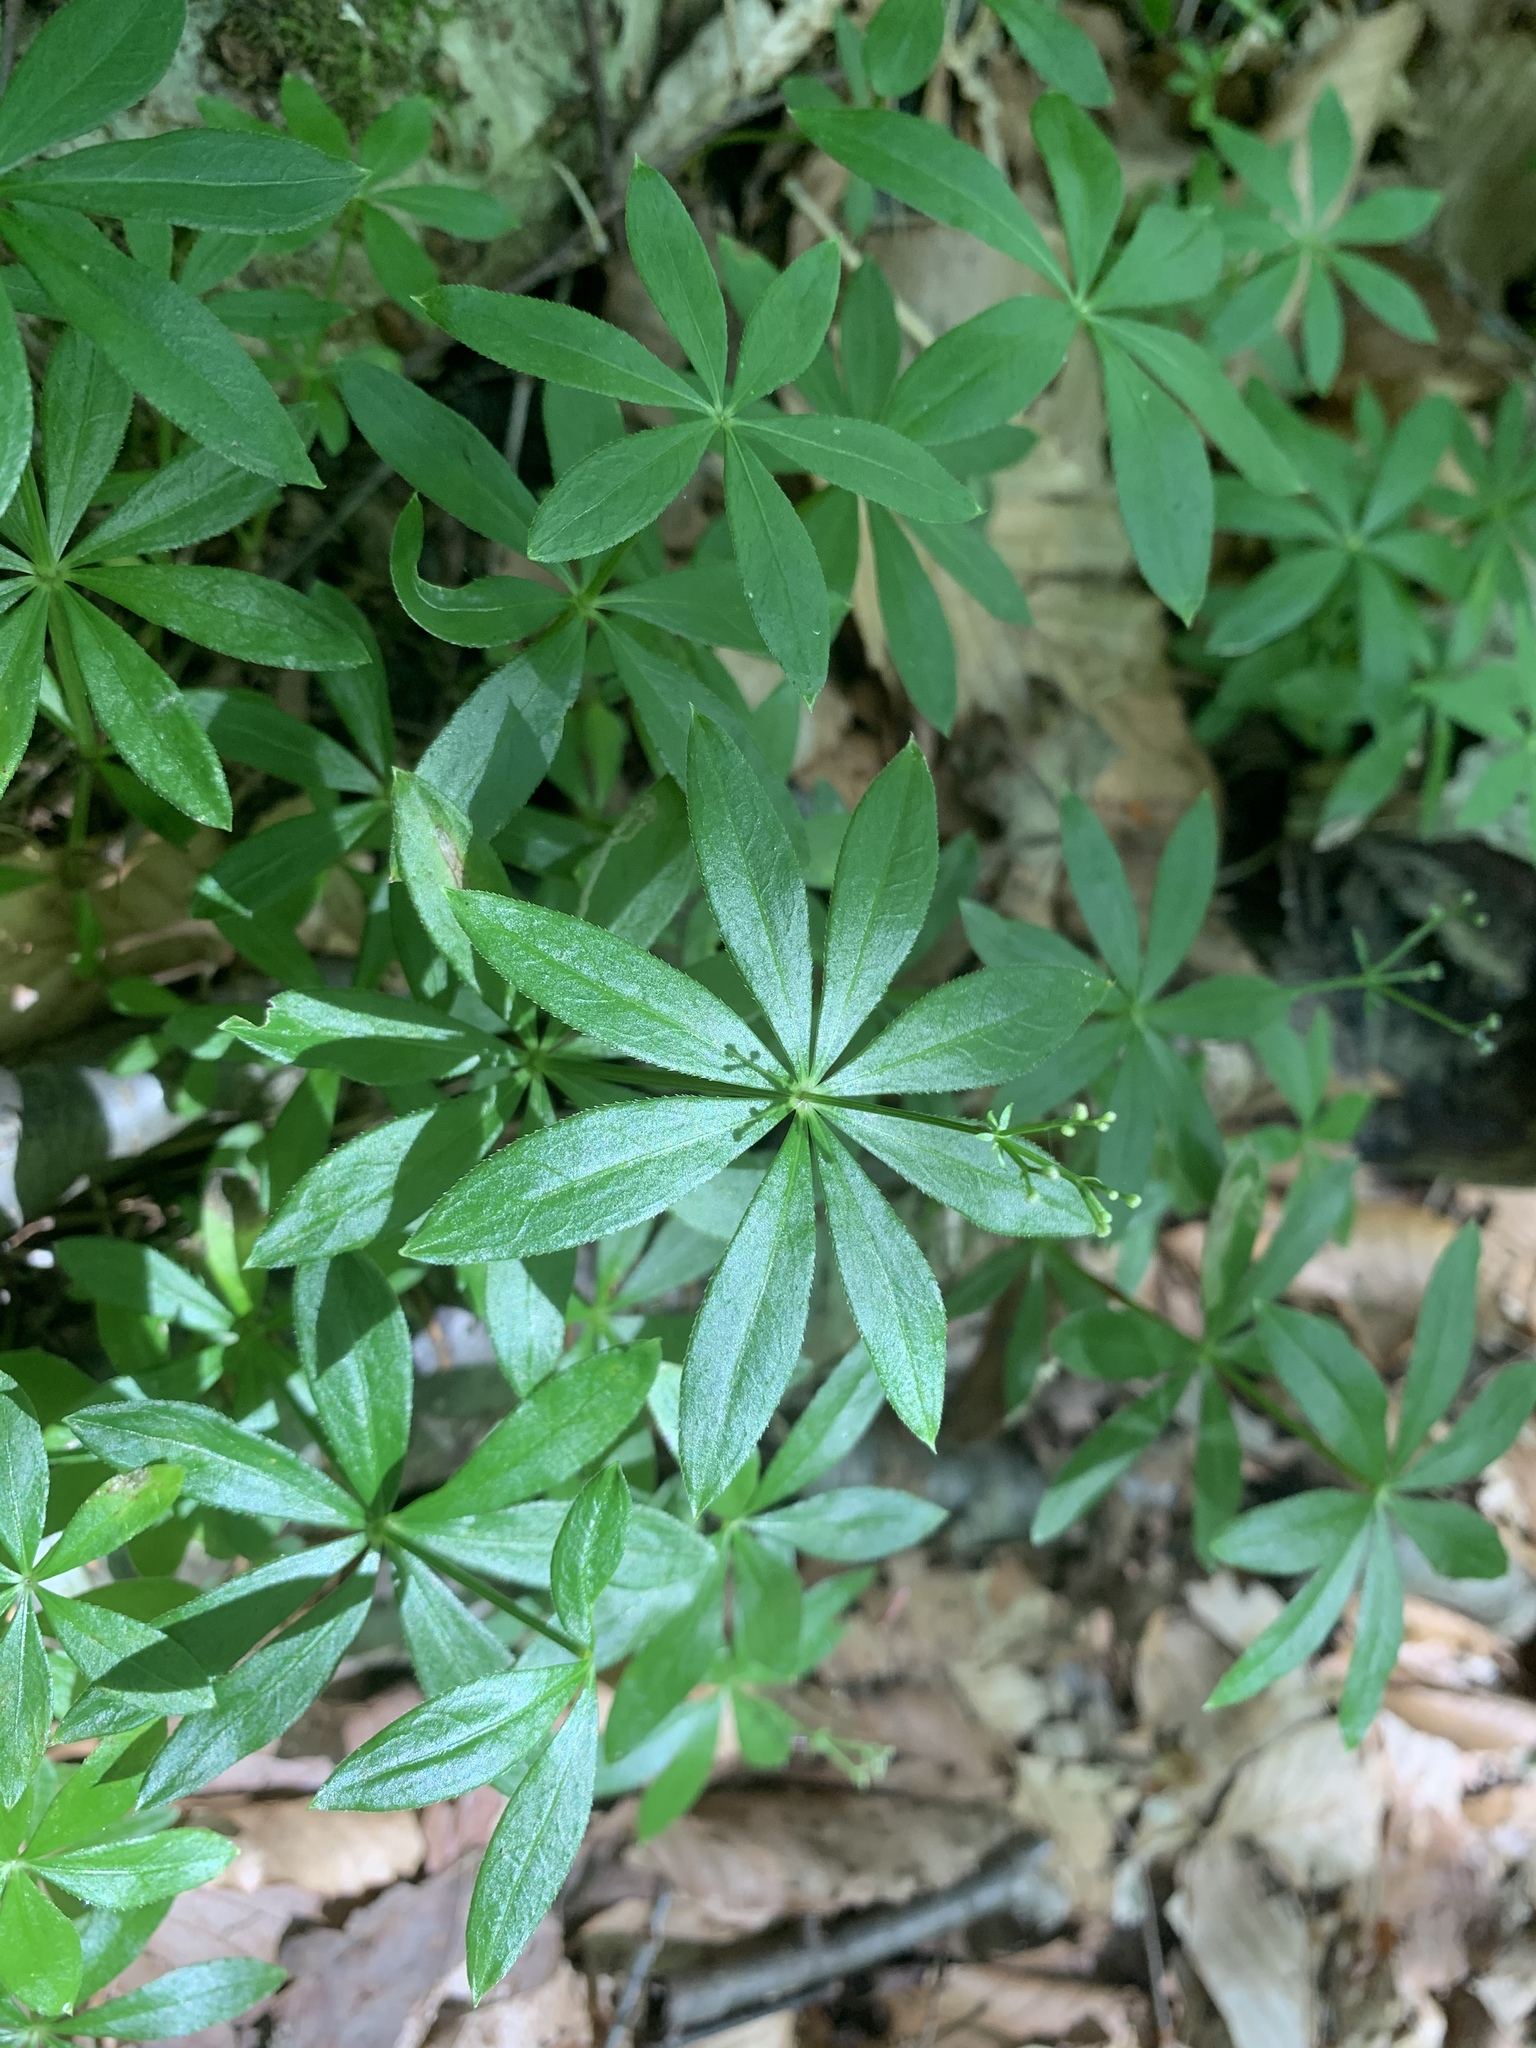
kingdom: Plantae
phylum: Tracheophyta
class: Magnoliopsida
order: Gentianales
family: Rubiaceae
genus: Galium
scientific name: Galium odoratum
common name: Sweet woodruff
